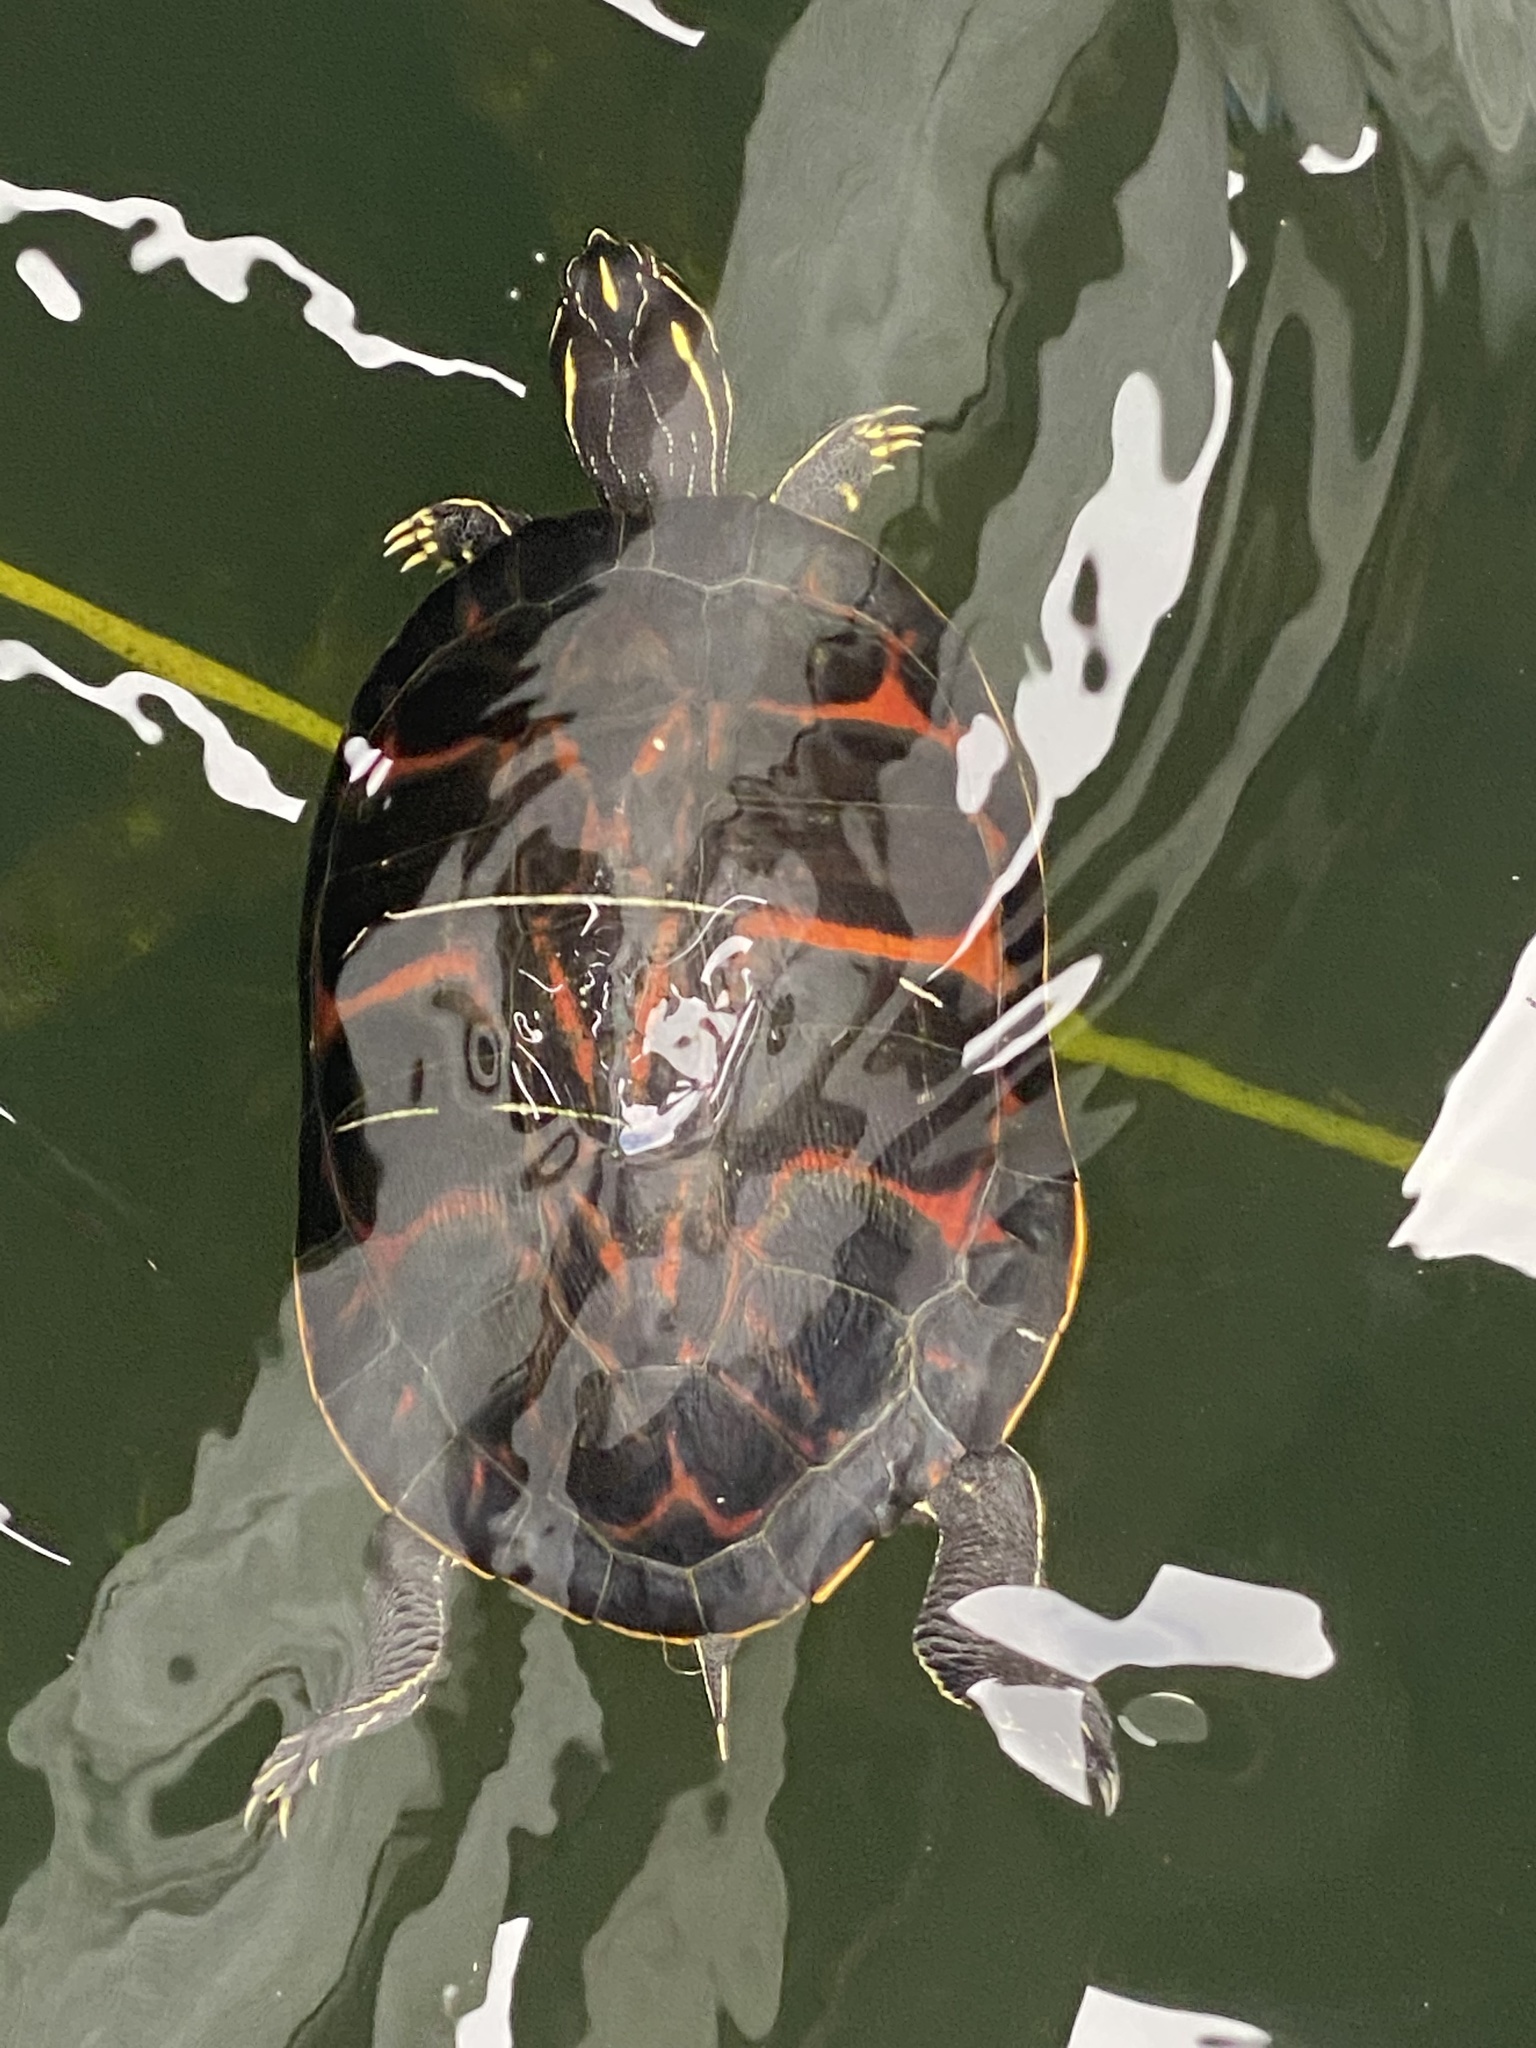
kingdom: Animalia
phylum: Chordata
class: Testudines
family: Emydidae
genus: Pseudemys
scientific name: Pseudemys nelsoni
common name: Florida red-bellied turtle
